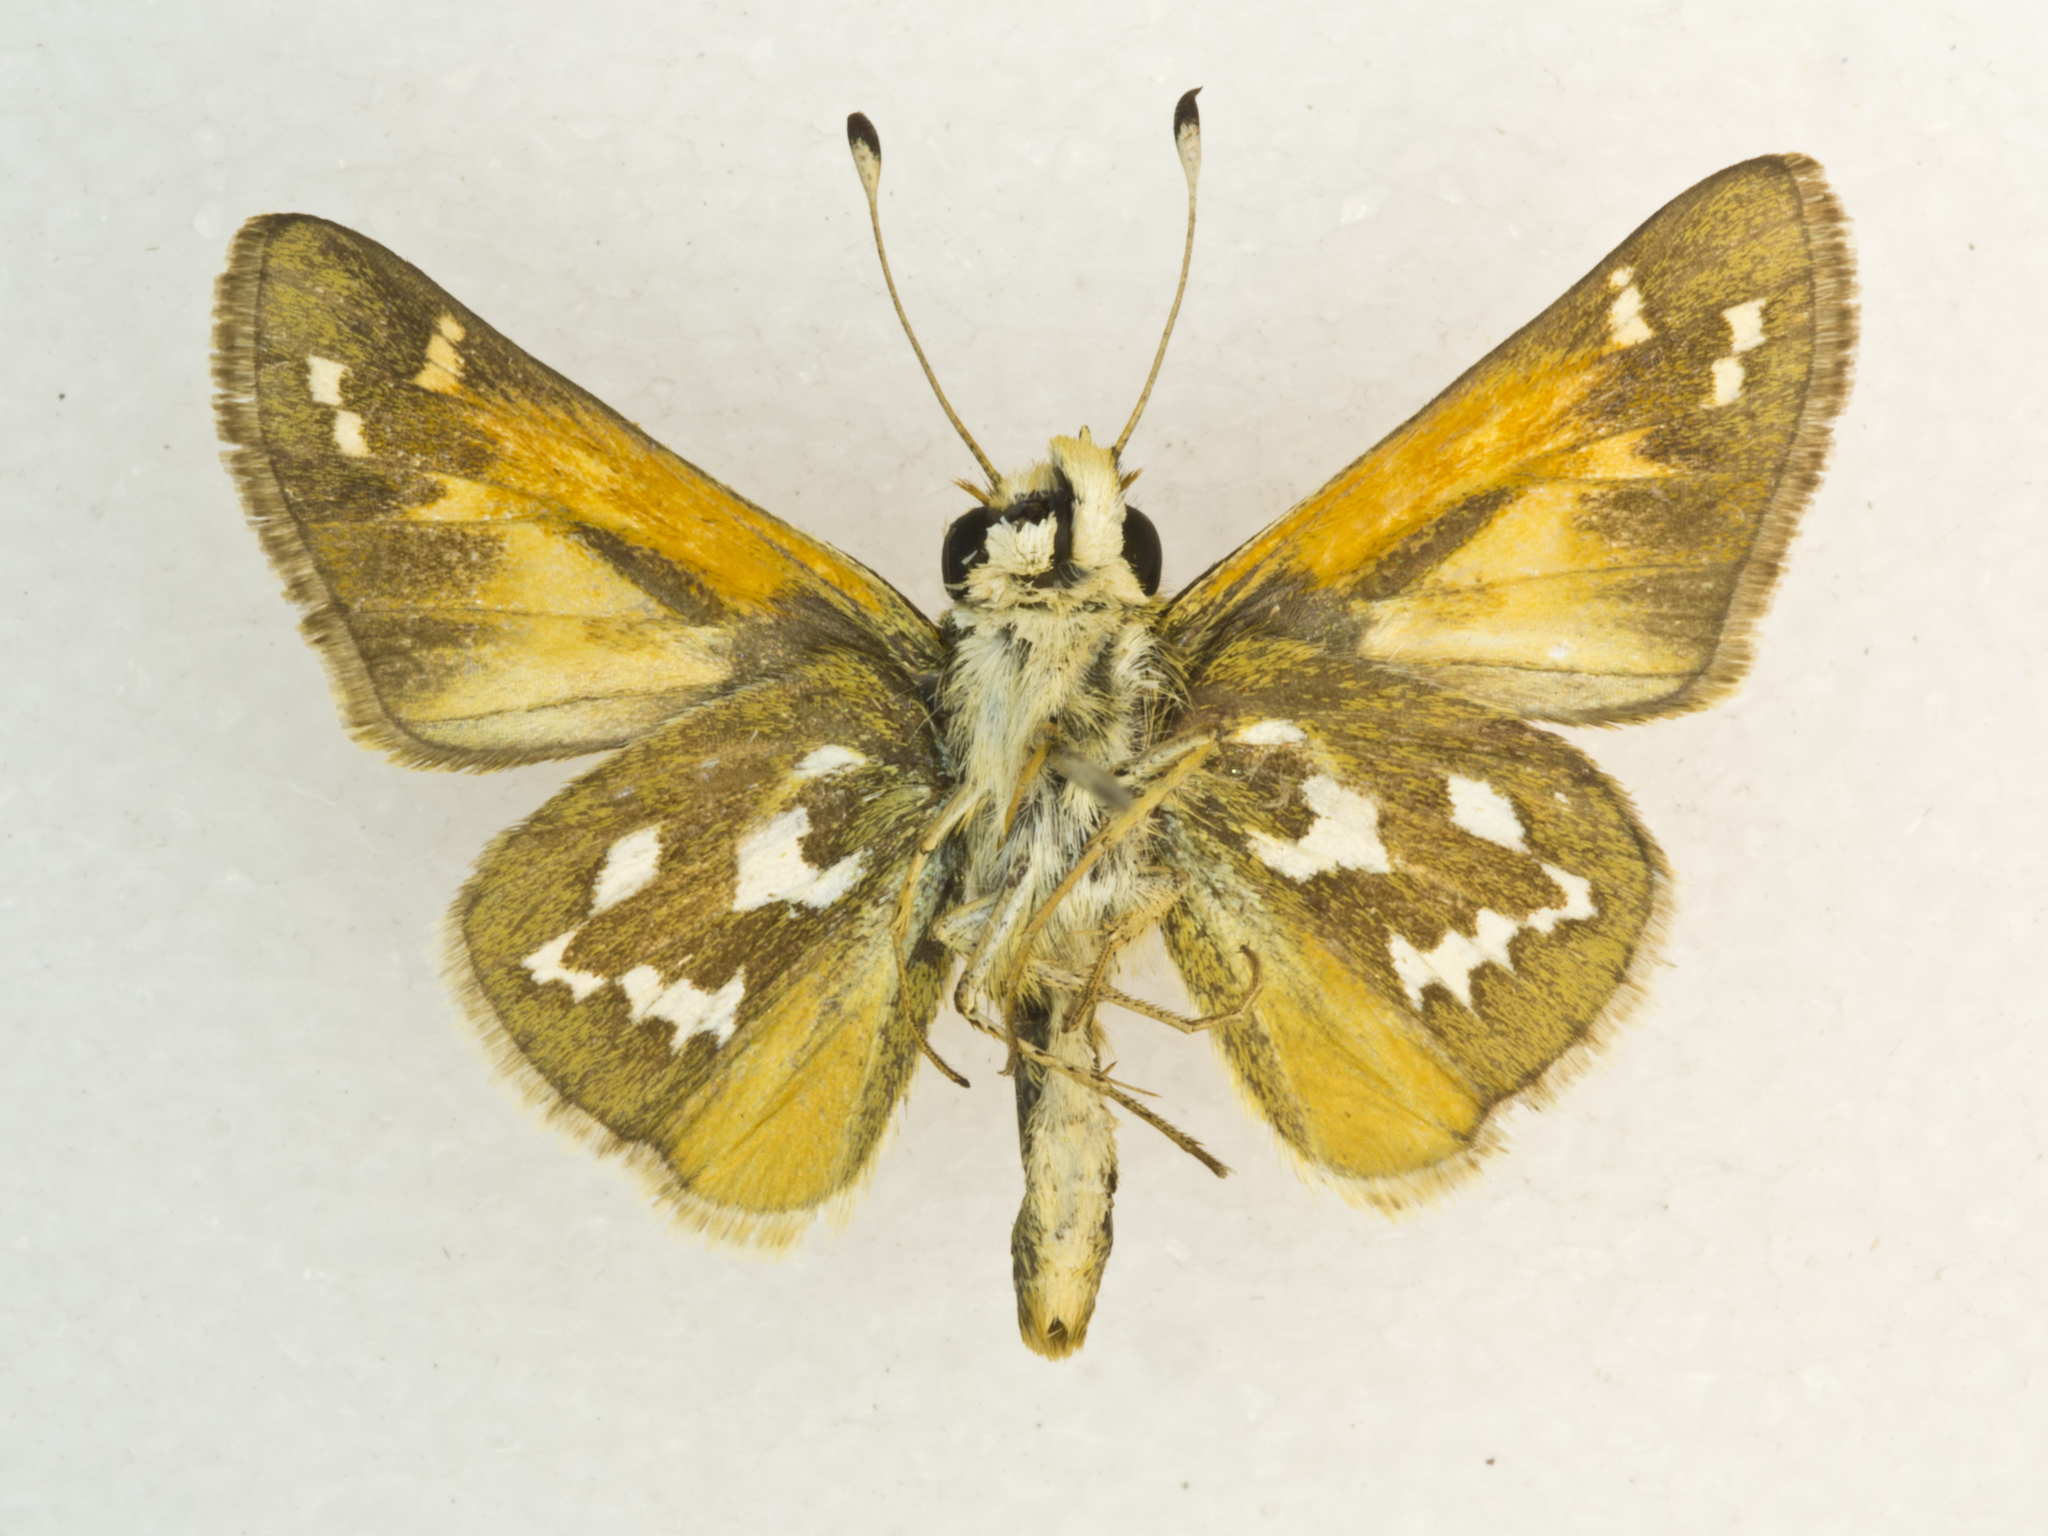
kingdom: Animalia
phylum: Arthropoda
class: Insecta
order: Lepidoptera
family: Hesperiidae
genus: Hesperia
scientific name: Hesperia comma
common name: Common branded skipper
